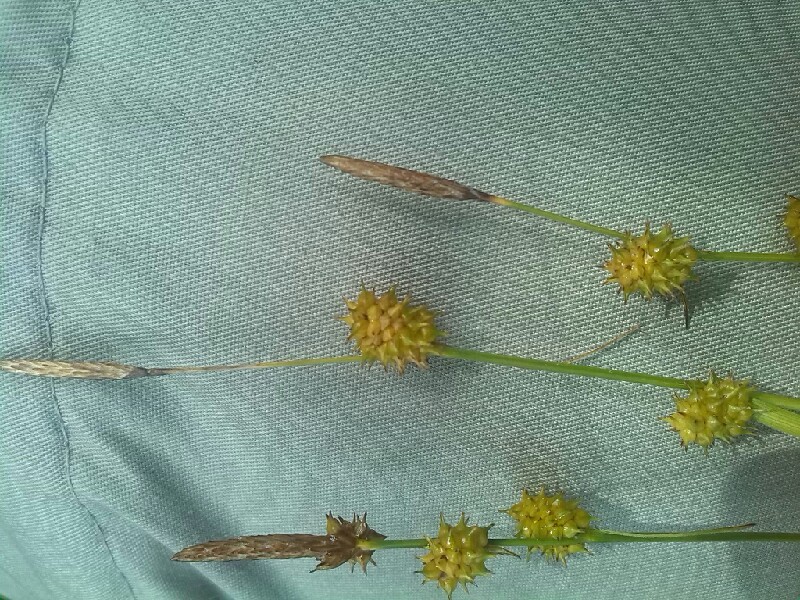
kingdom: Plantae
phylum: Tracheophyta
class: Liliopsida
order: Poales
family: Cyperaceae
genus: Carex
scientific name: Carex lepidocarpa
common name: Long-stalked yellow-sedge
